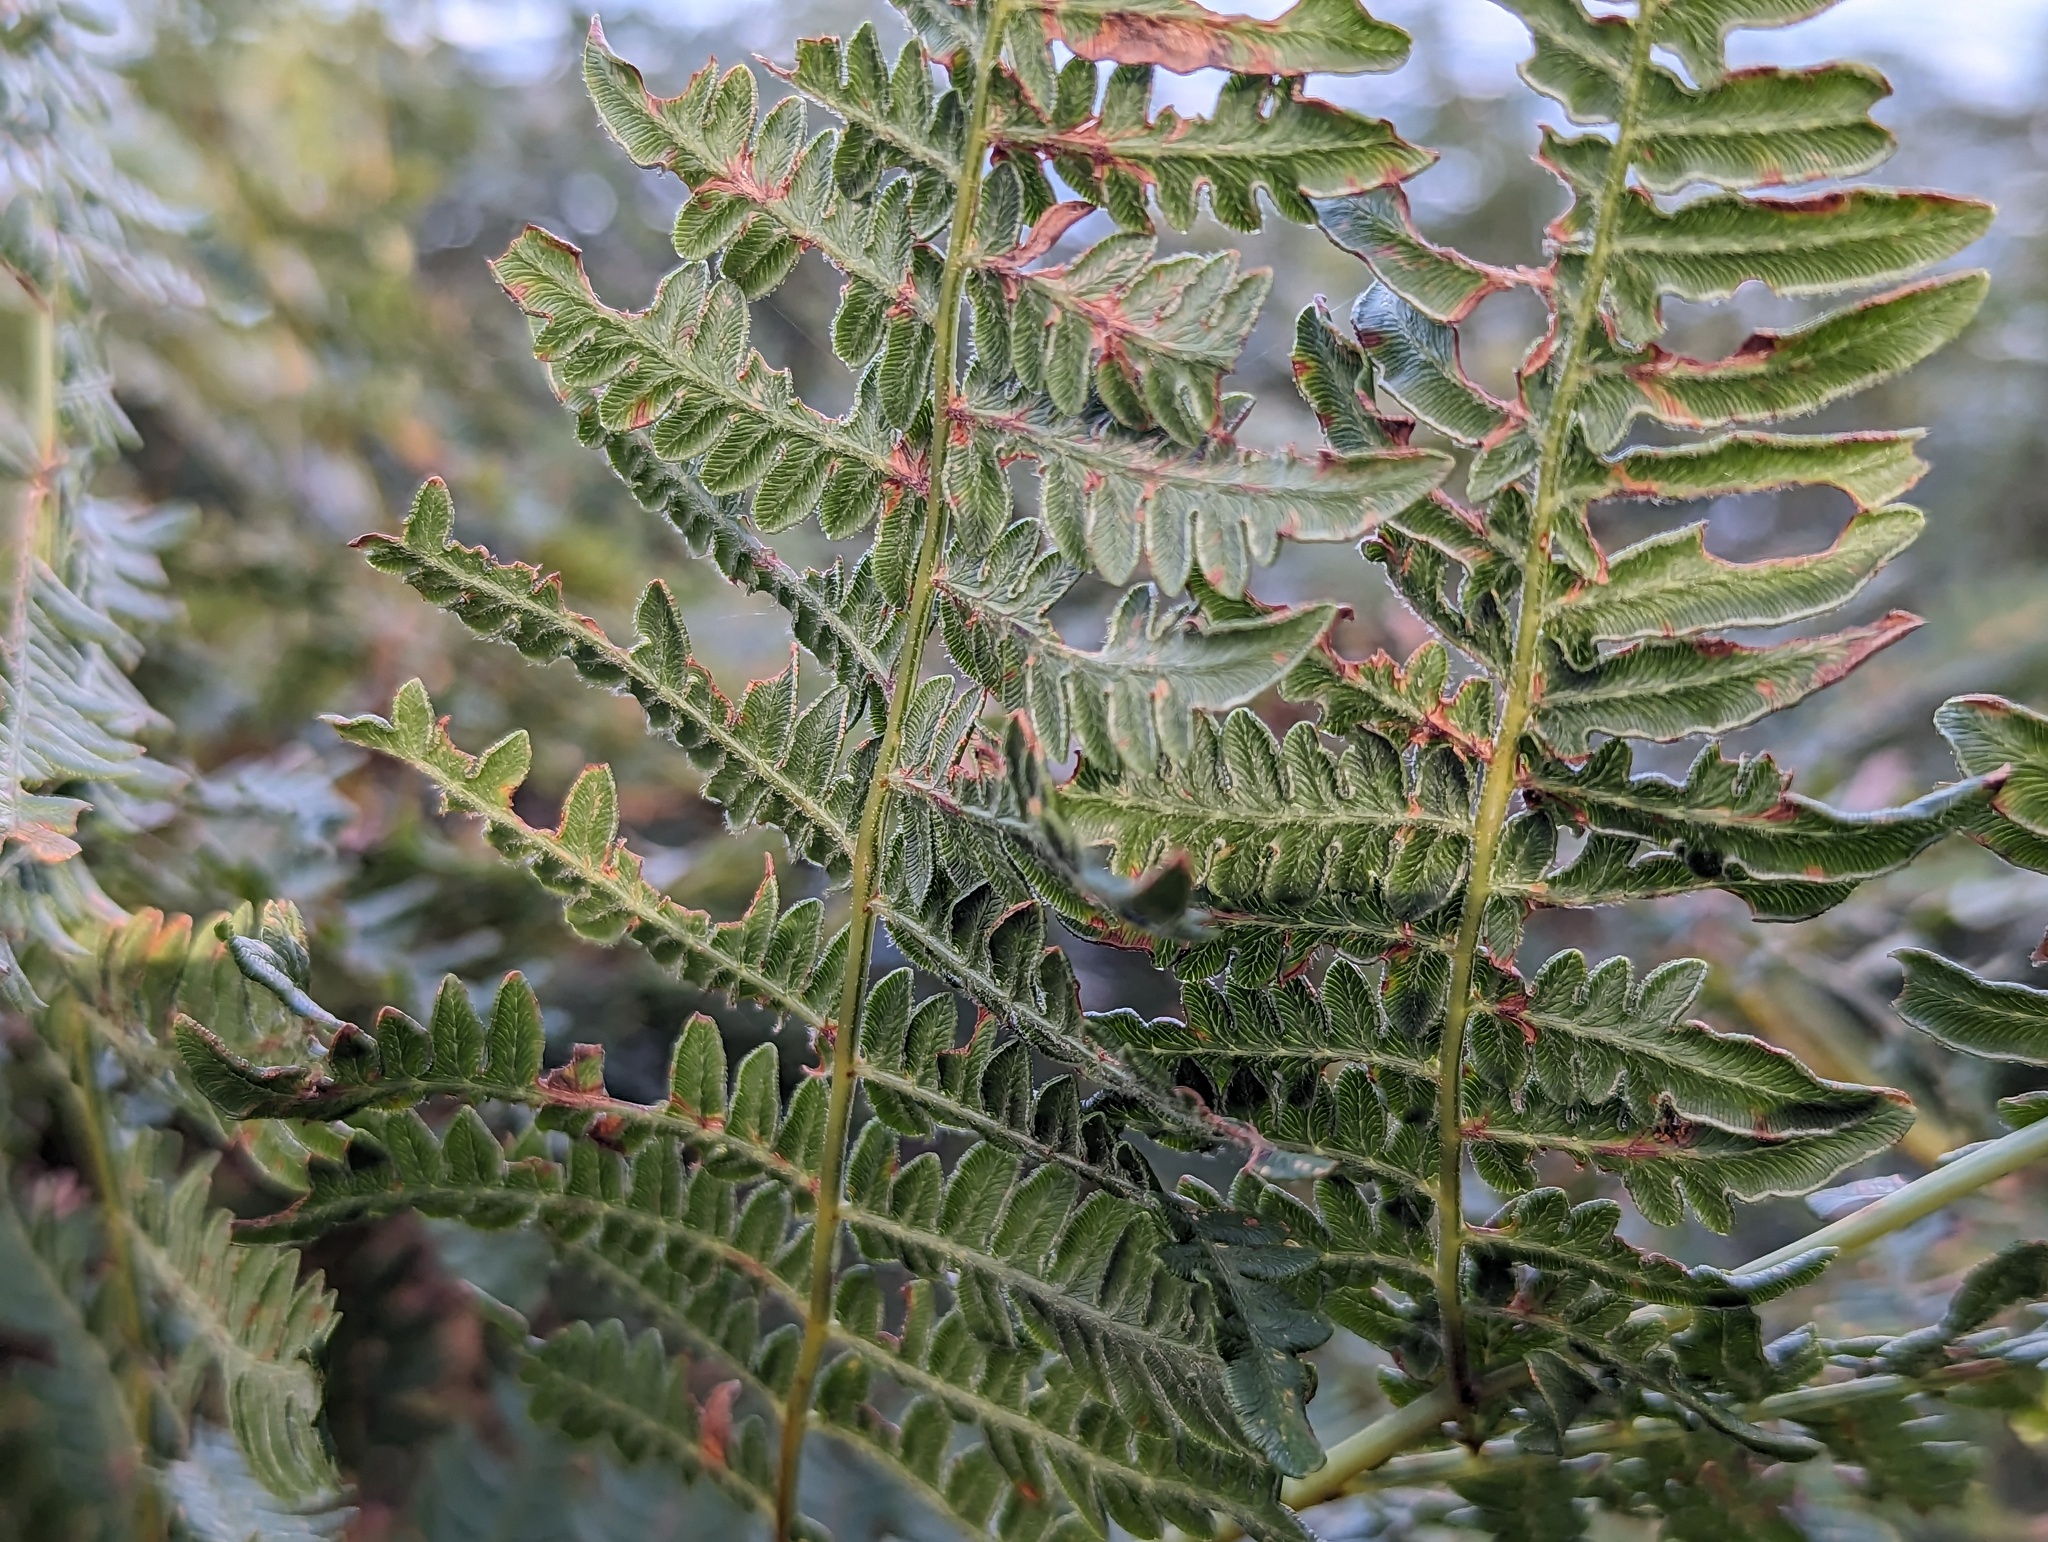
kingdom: Plantae
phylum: Tracheophyta
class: Polypodiopsida
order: Polypodiales
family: Dennstaedtiaceae
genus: Pteridium
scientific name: Pteridium aquilinum
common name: Bracken
